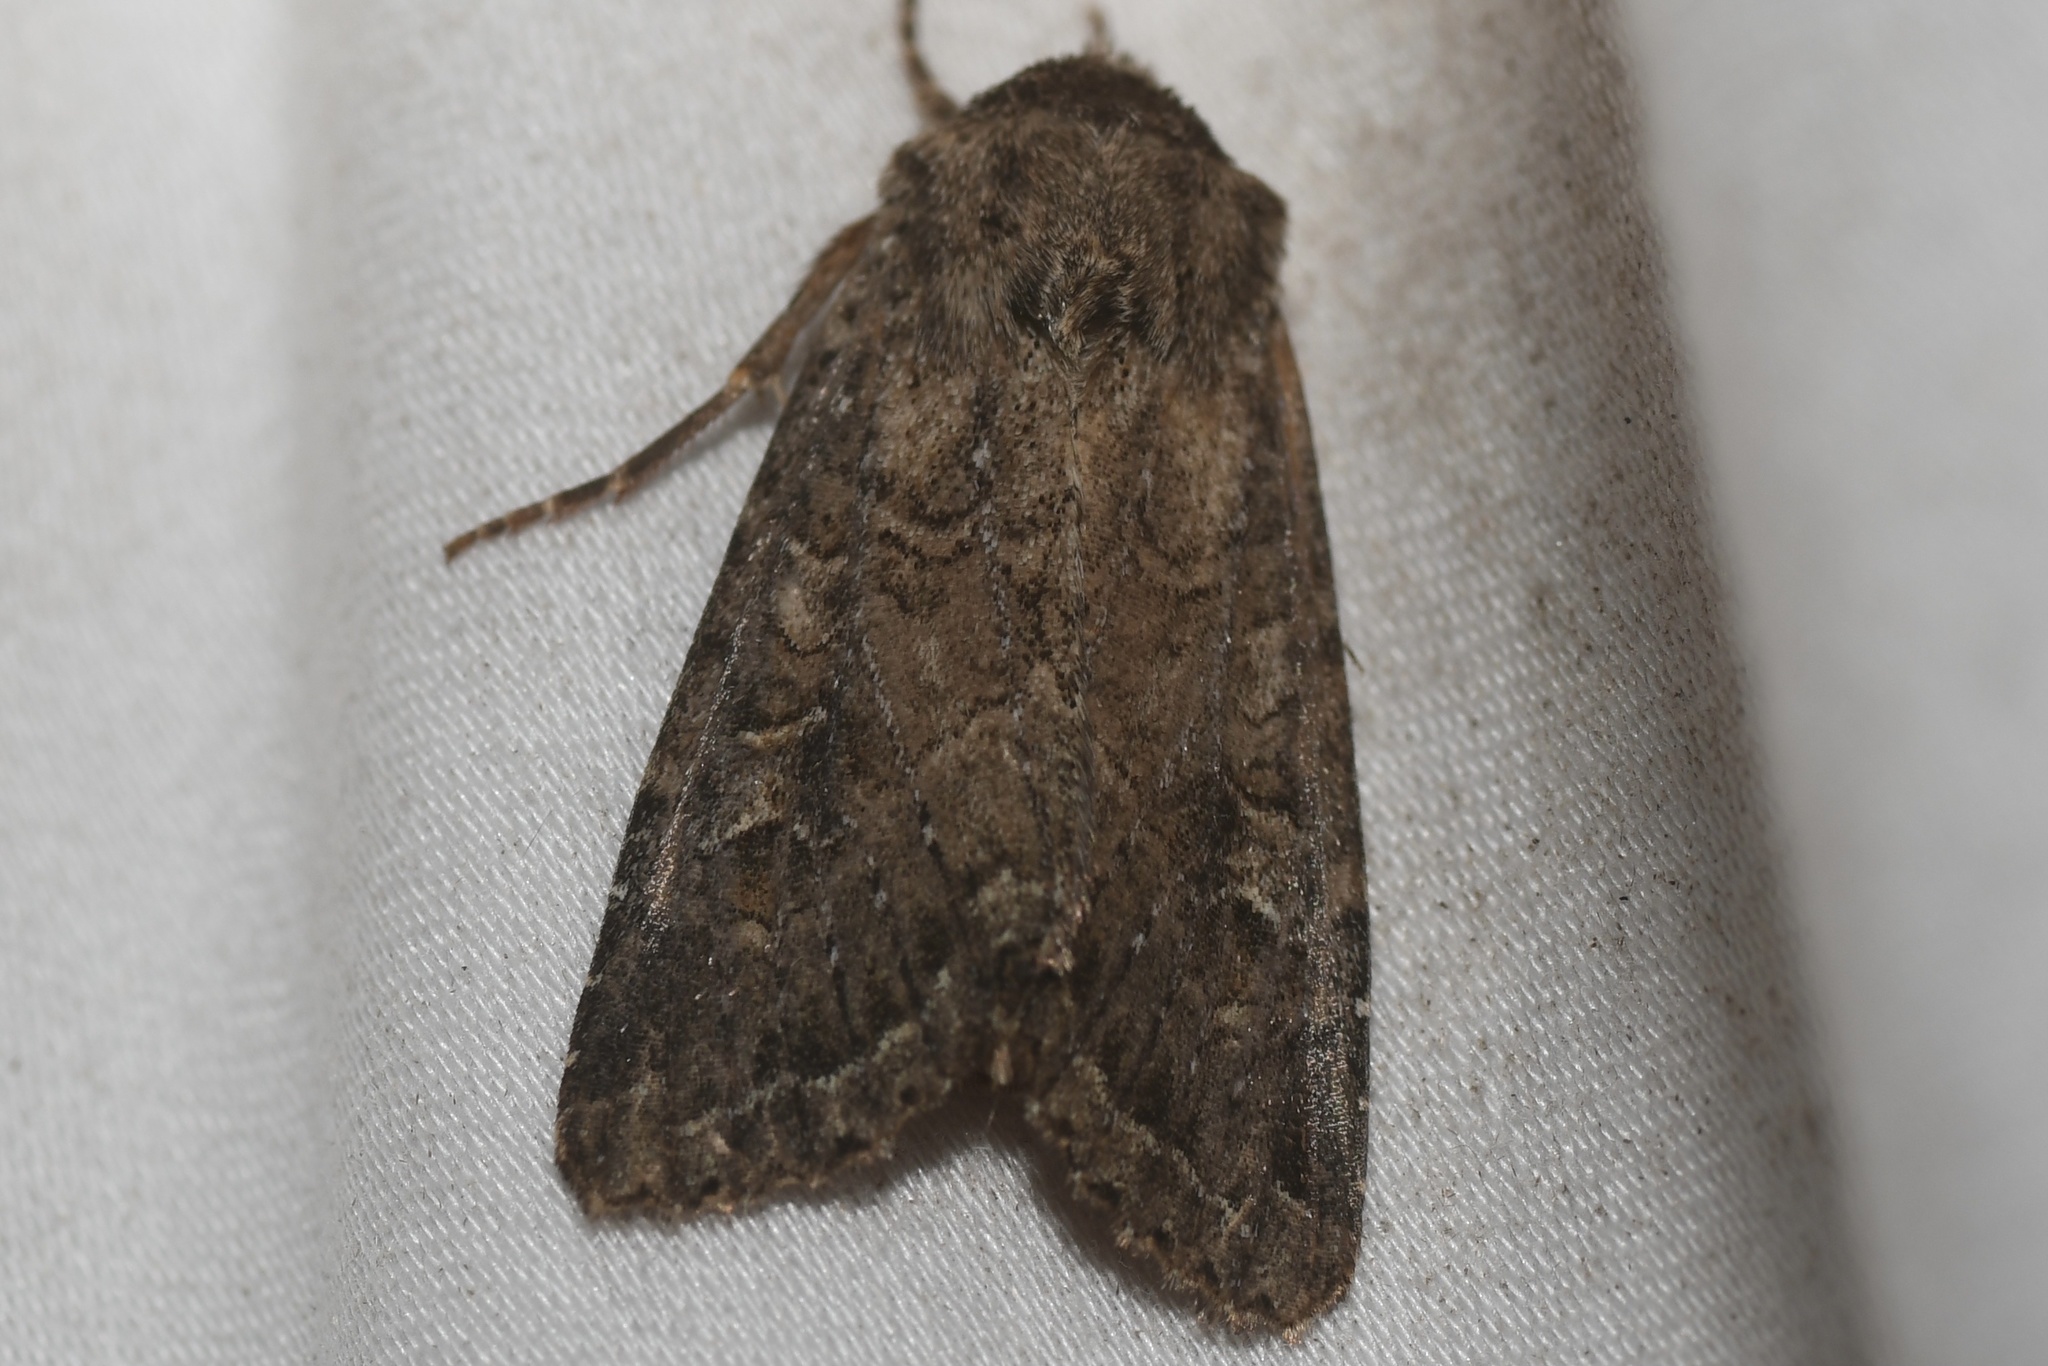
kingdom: Animalia
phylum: Arthropoda
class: Insecta
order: Lepidoptera
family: Noctuidae
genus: Apamea
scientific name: Apamea devastator
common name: Glassy cutworm
